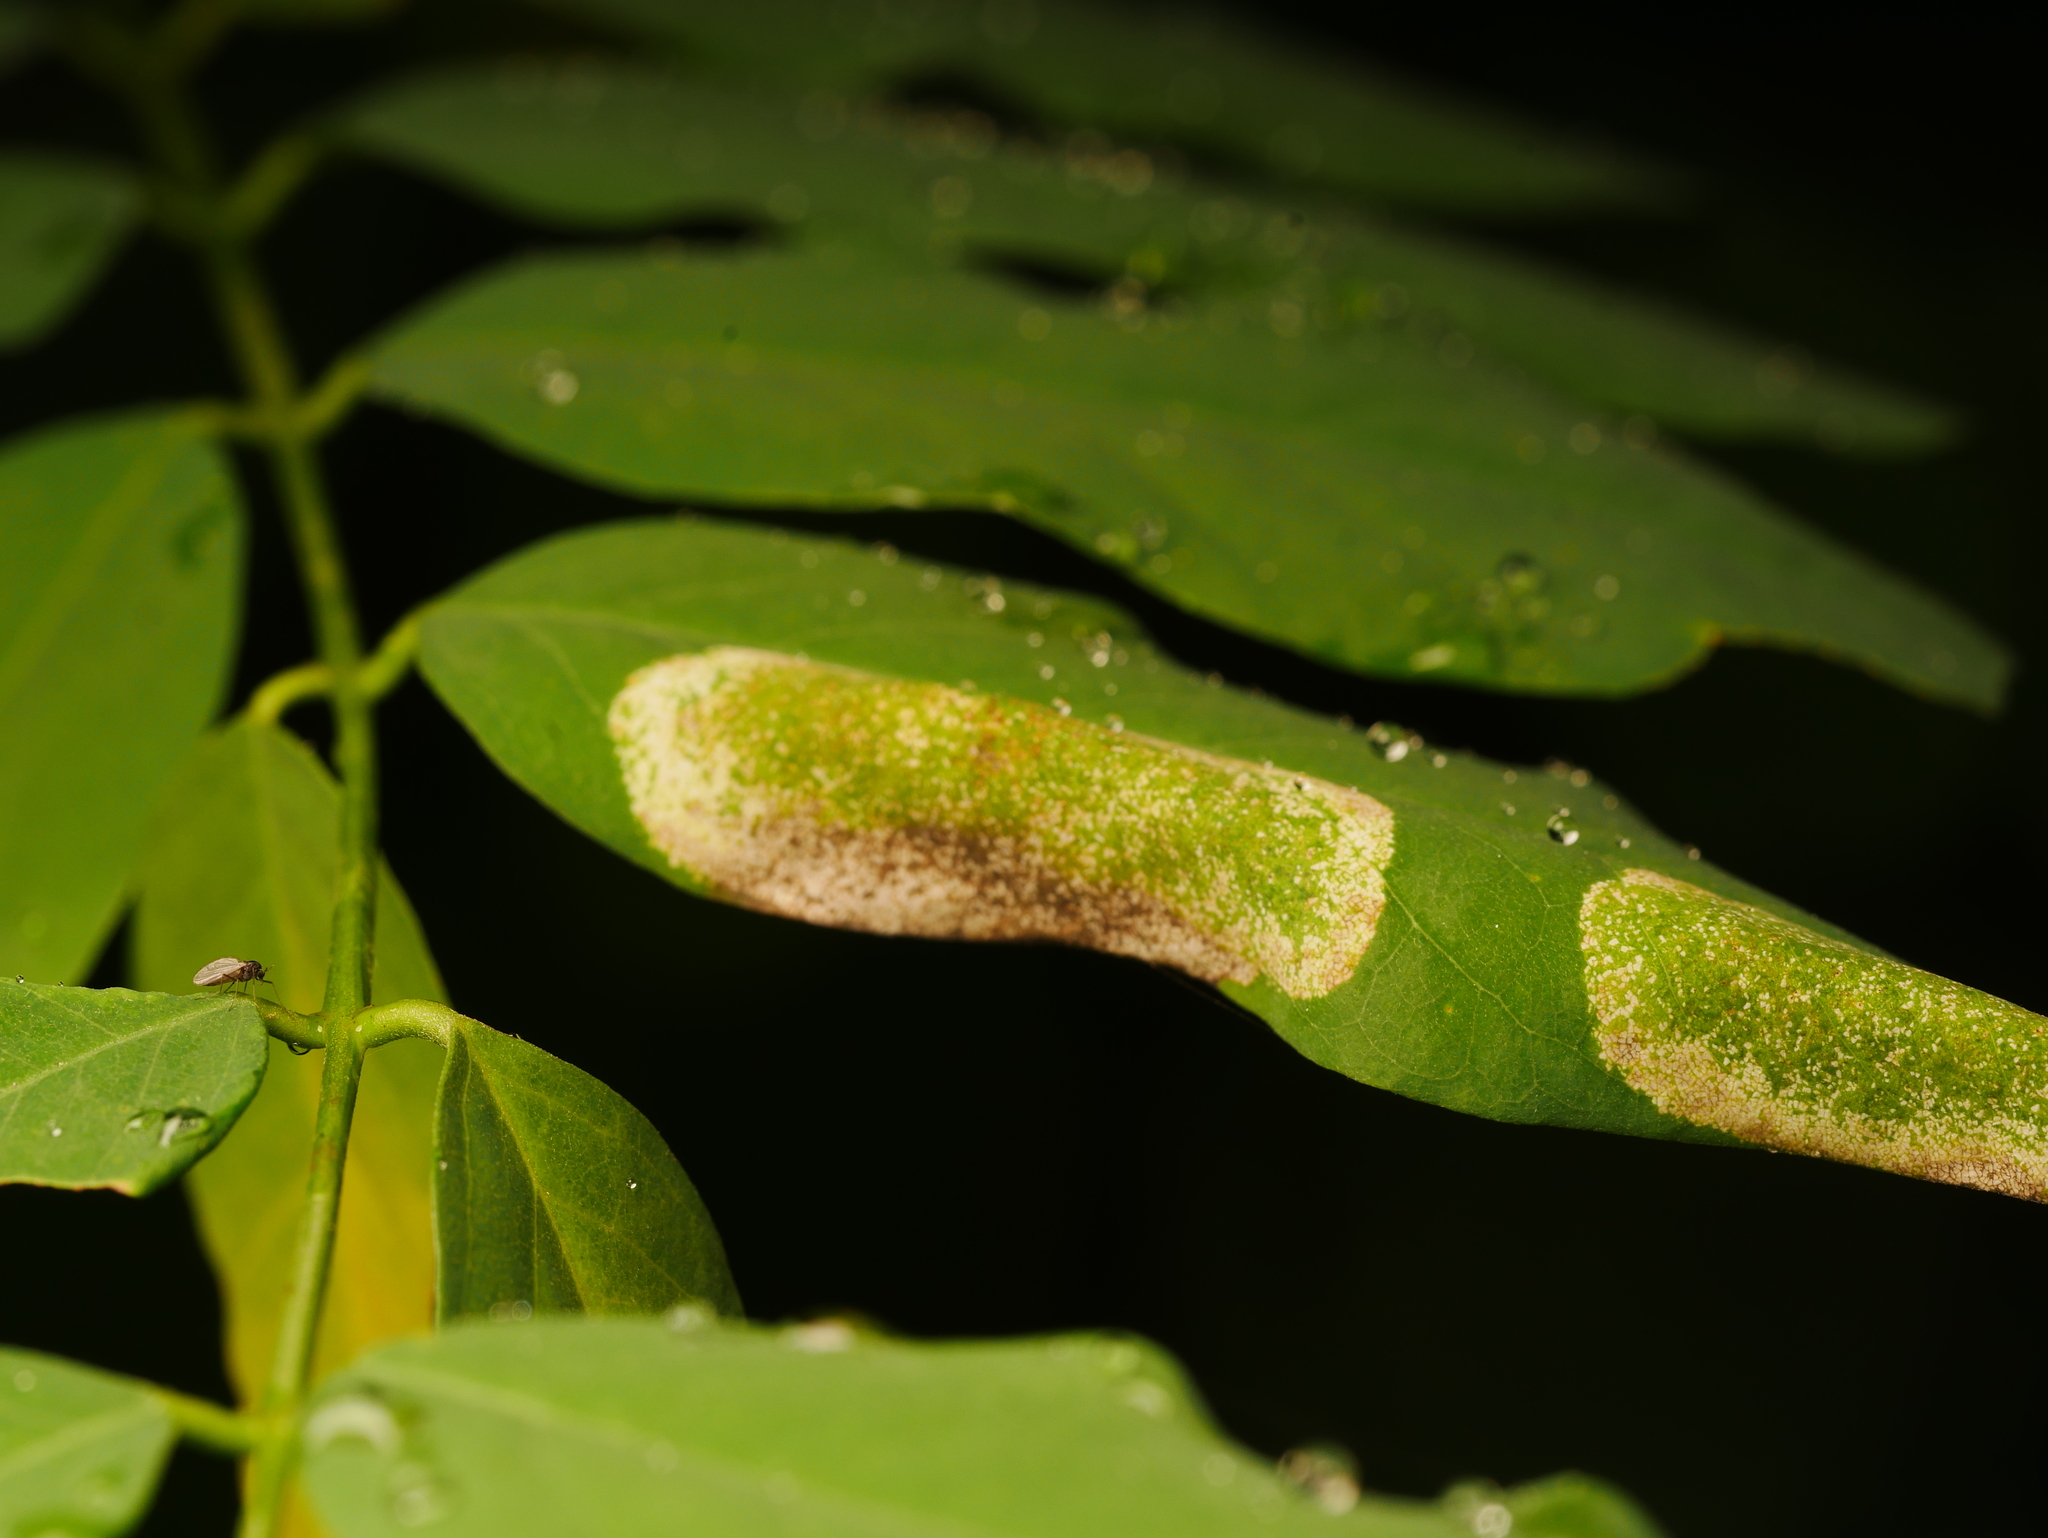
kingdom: Animalia
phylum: Arthropoda
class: Insecta
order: Lepidoptera
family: Gracillariidae
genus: Macrosaccus
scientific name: Macrosaccus robiniella
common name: Leaf blotch miner moth
